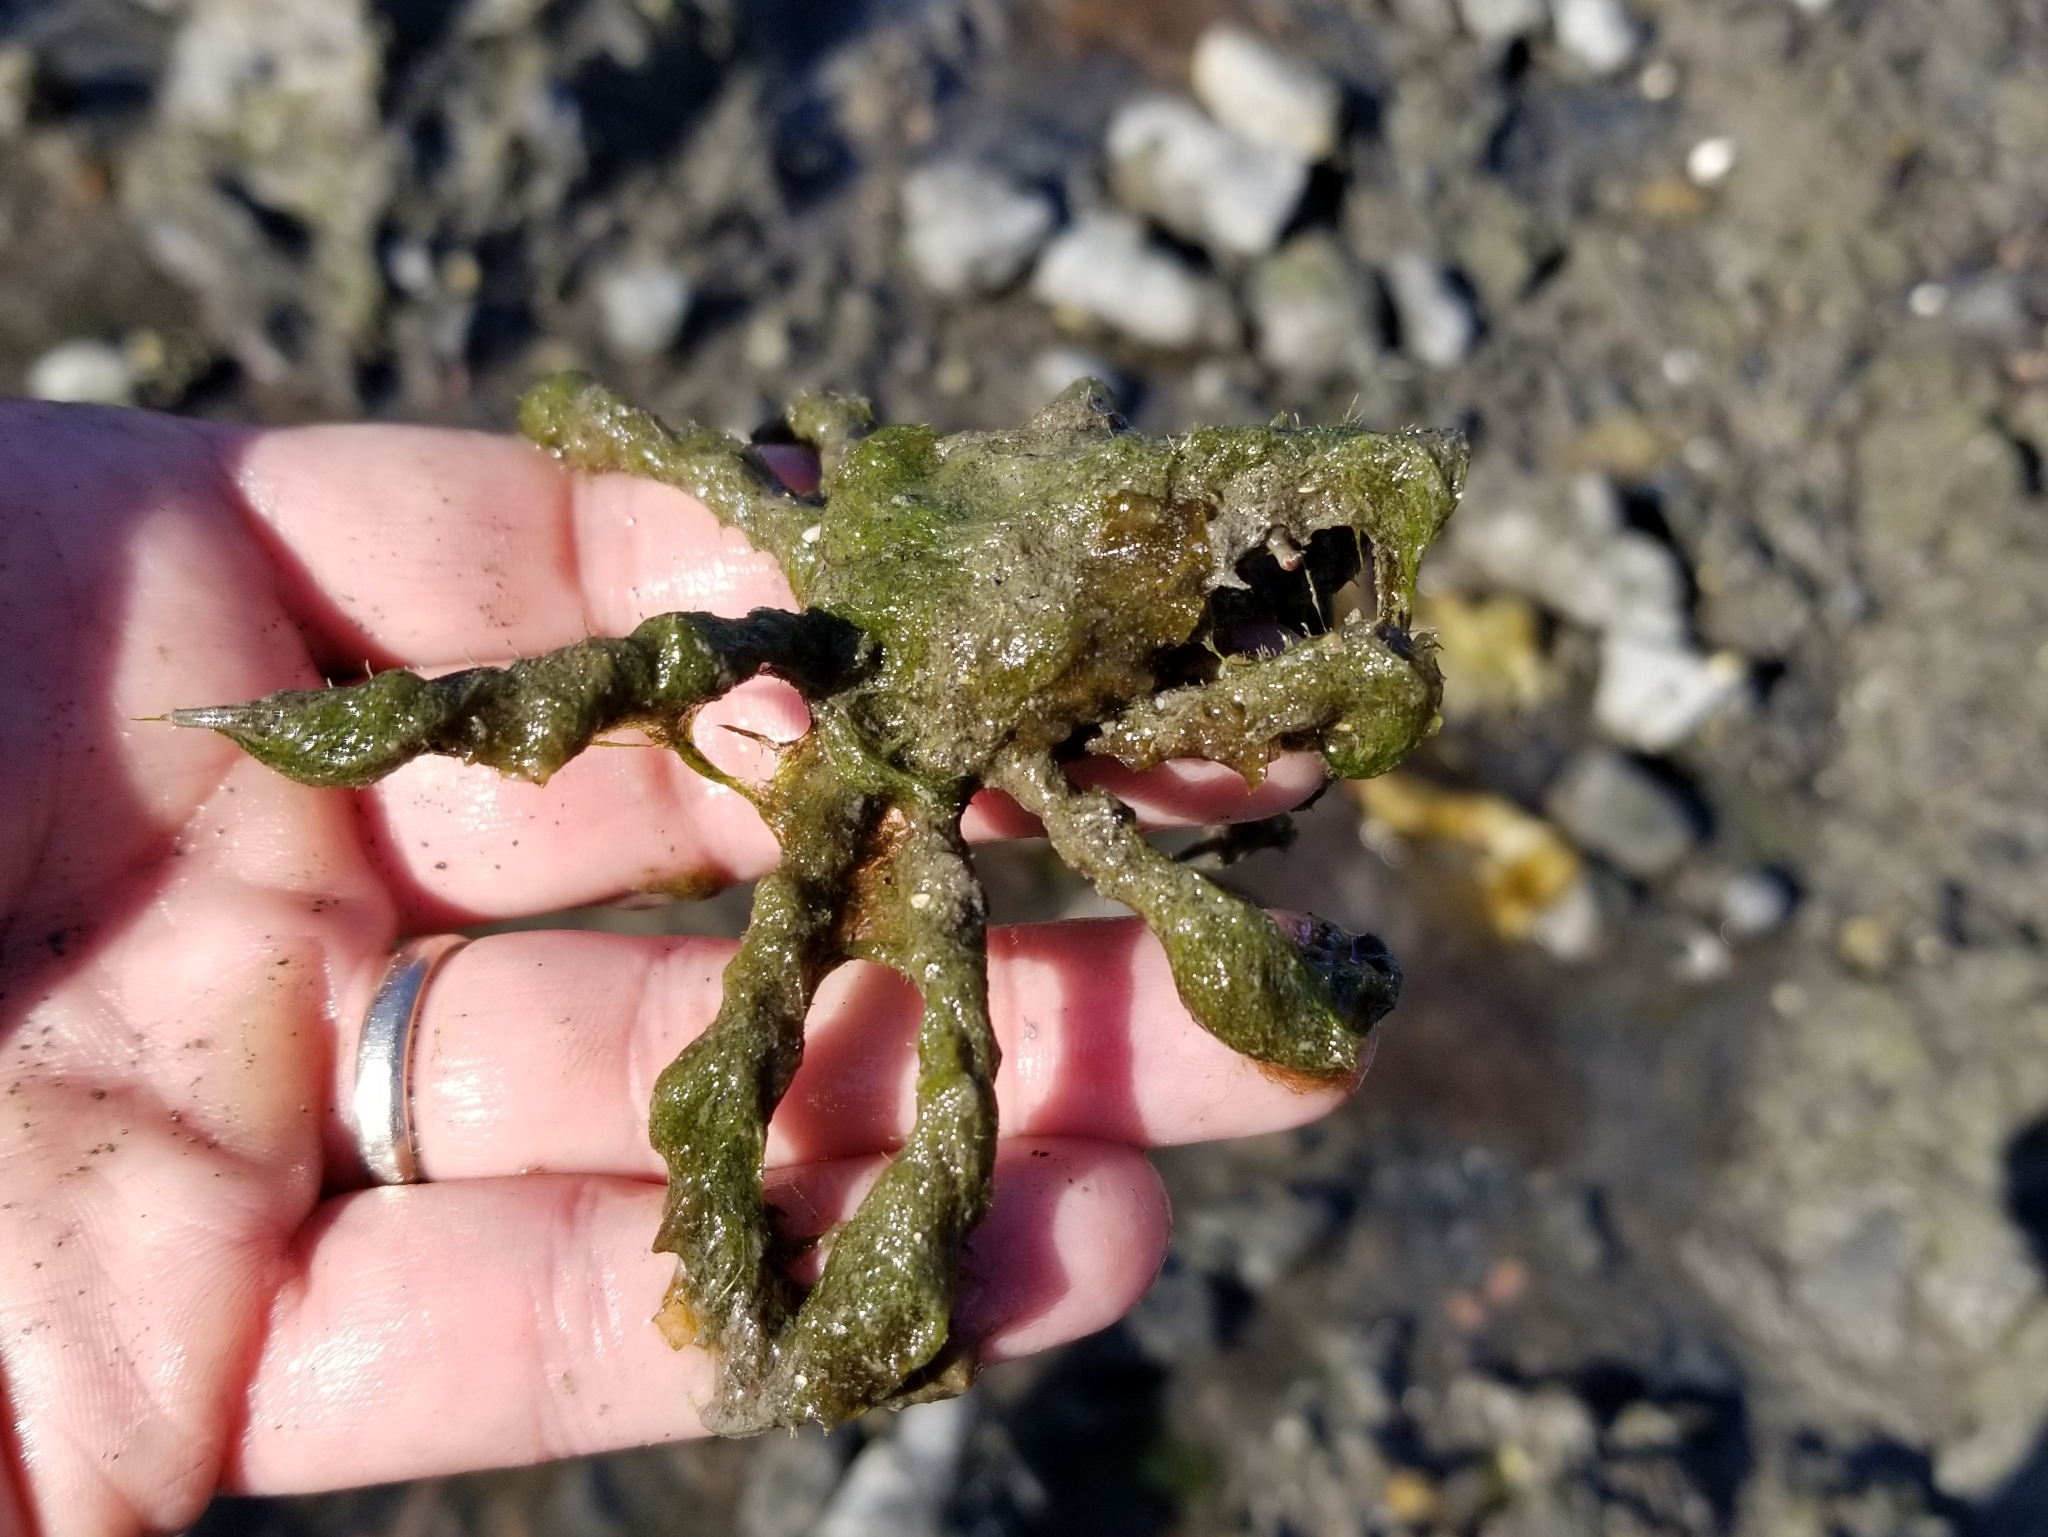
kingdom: Animalia
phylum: Arthropoda
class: Malacostraca
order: Decapoda
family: Oregoniidae
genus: Oregonia
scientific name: Oregonia gracilis
